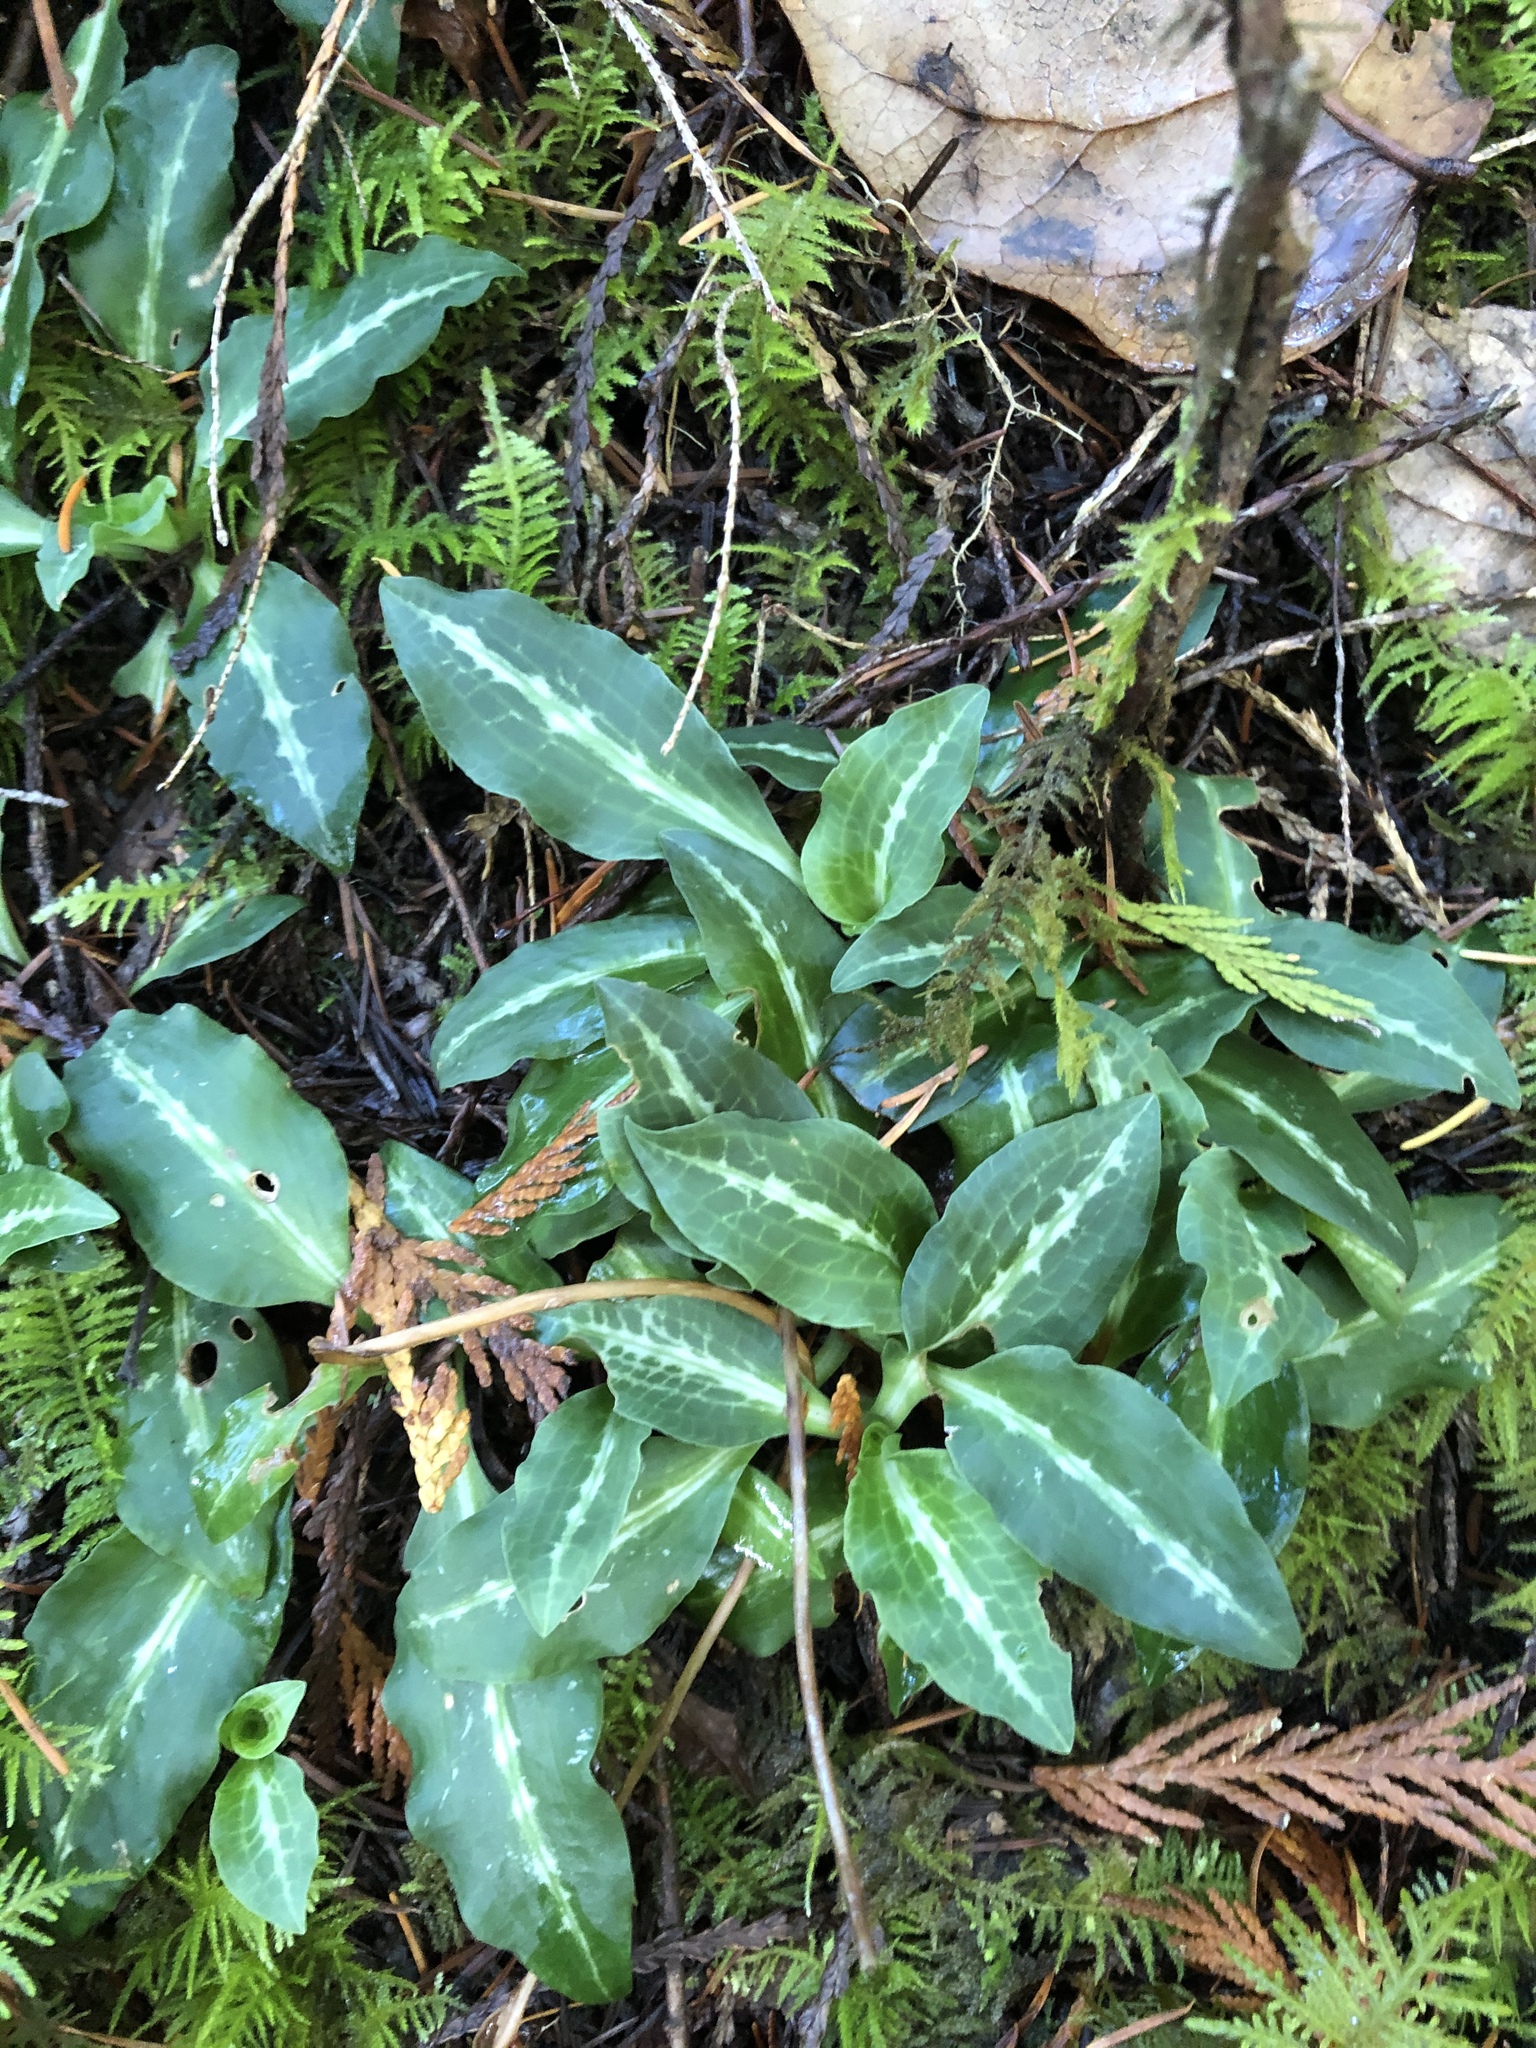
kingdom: Plantae
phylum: Tracheophyta
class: Liliopsida
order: Asparagales
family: Orchidaceae
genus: Goodyera
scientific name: Goodyera oblongifolia
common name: Giant rattlesnake-plantain
